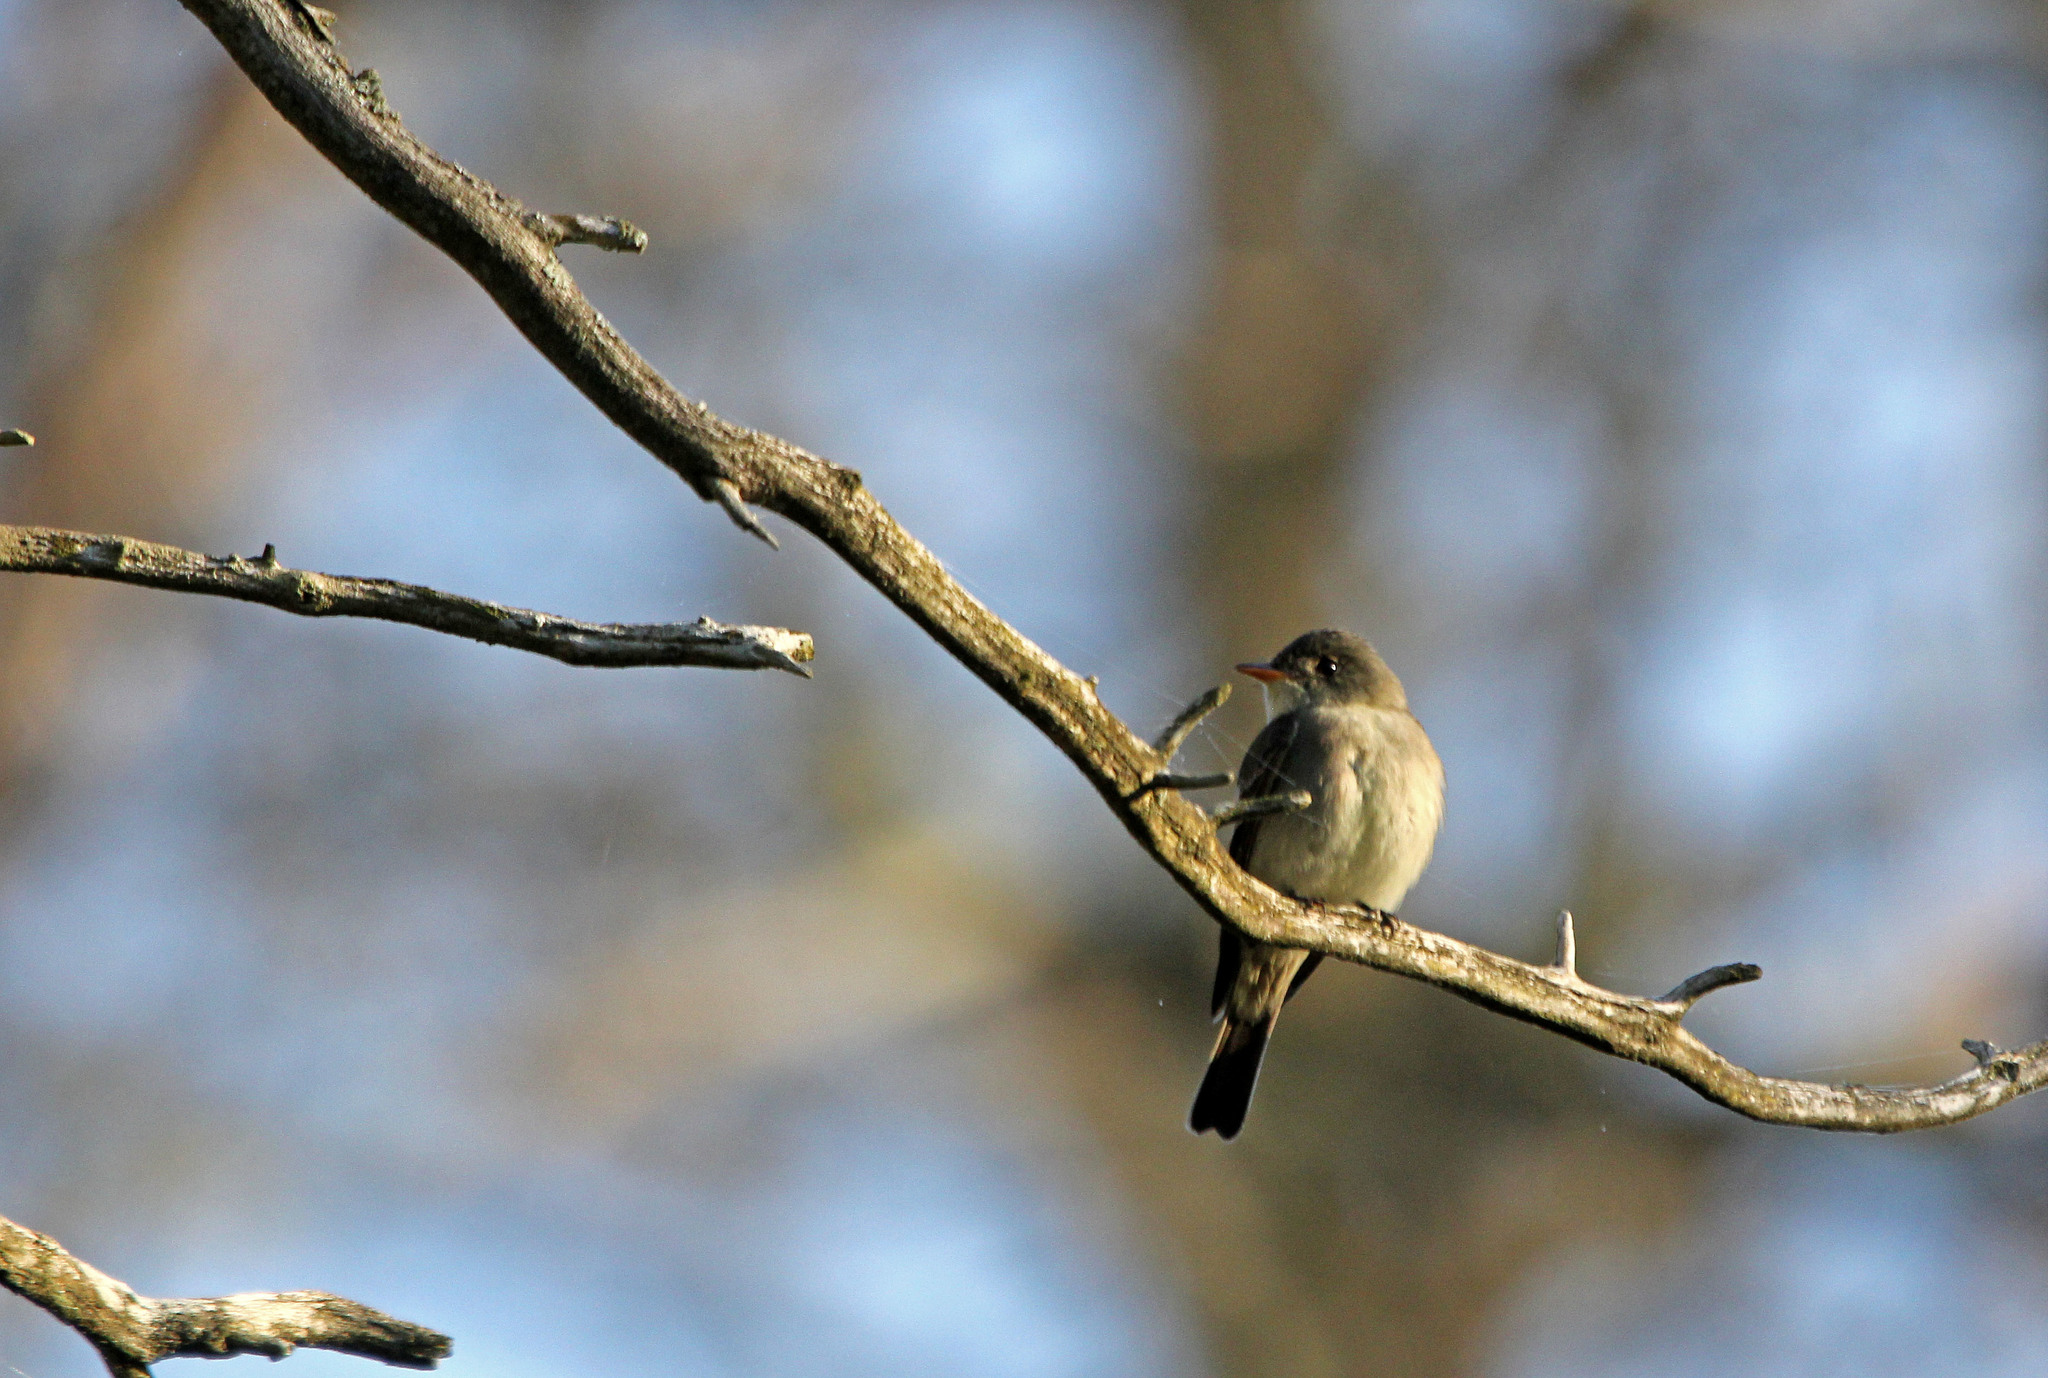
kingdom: Animalia
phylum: Chordata
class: Aves
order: Passeriformes
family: Tyrannidae
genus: Contopus
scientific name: Contopus virens
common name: Eastern wood-pewee
